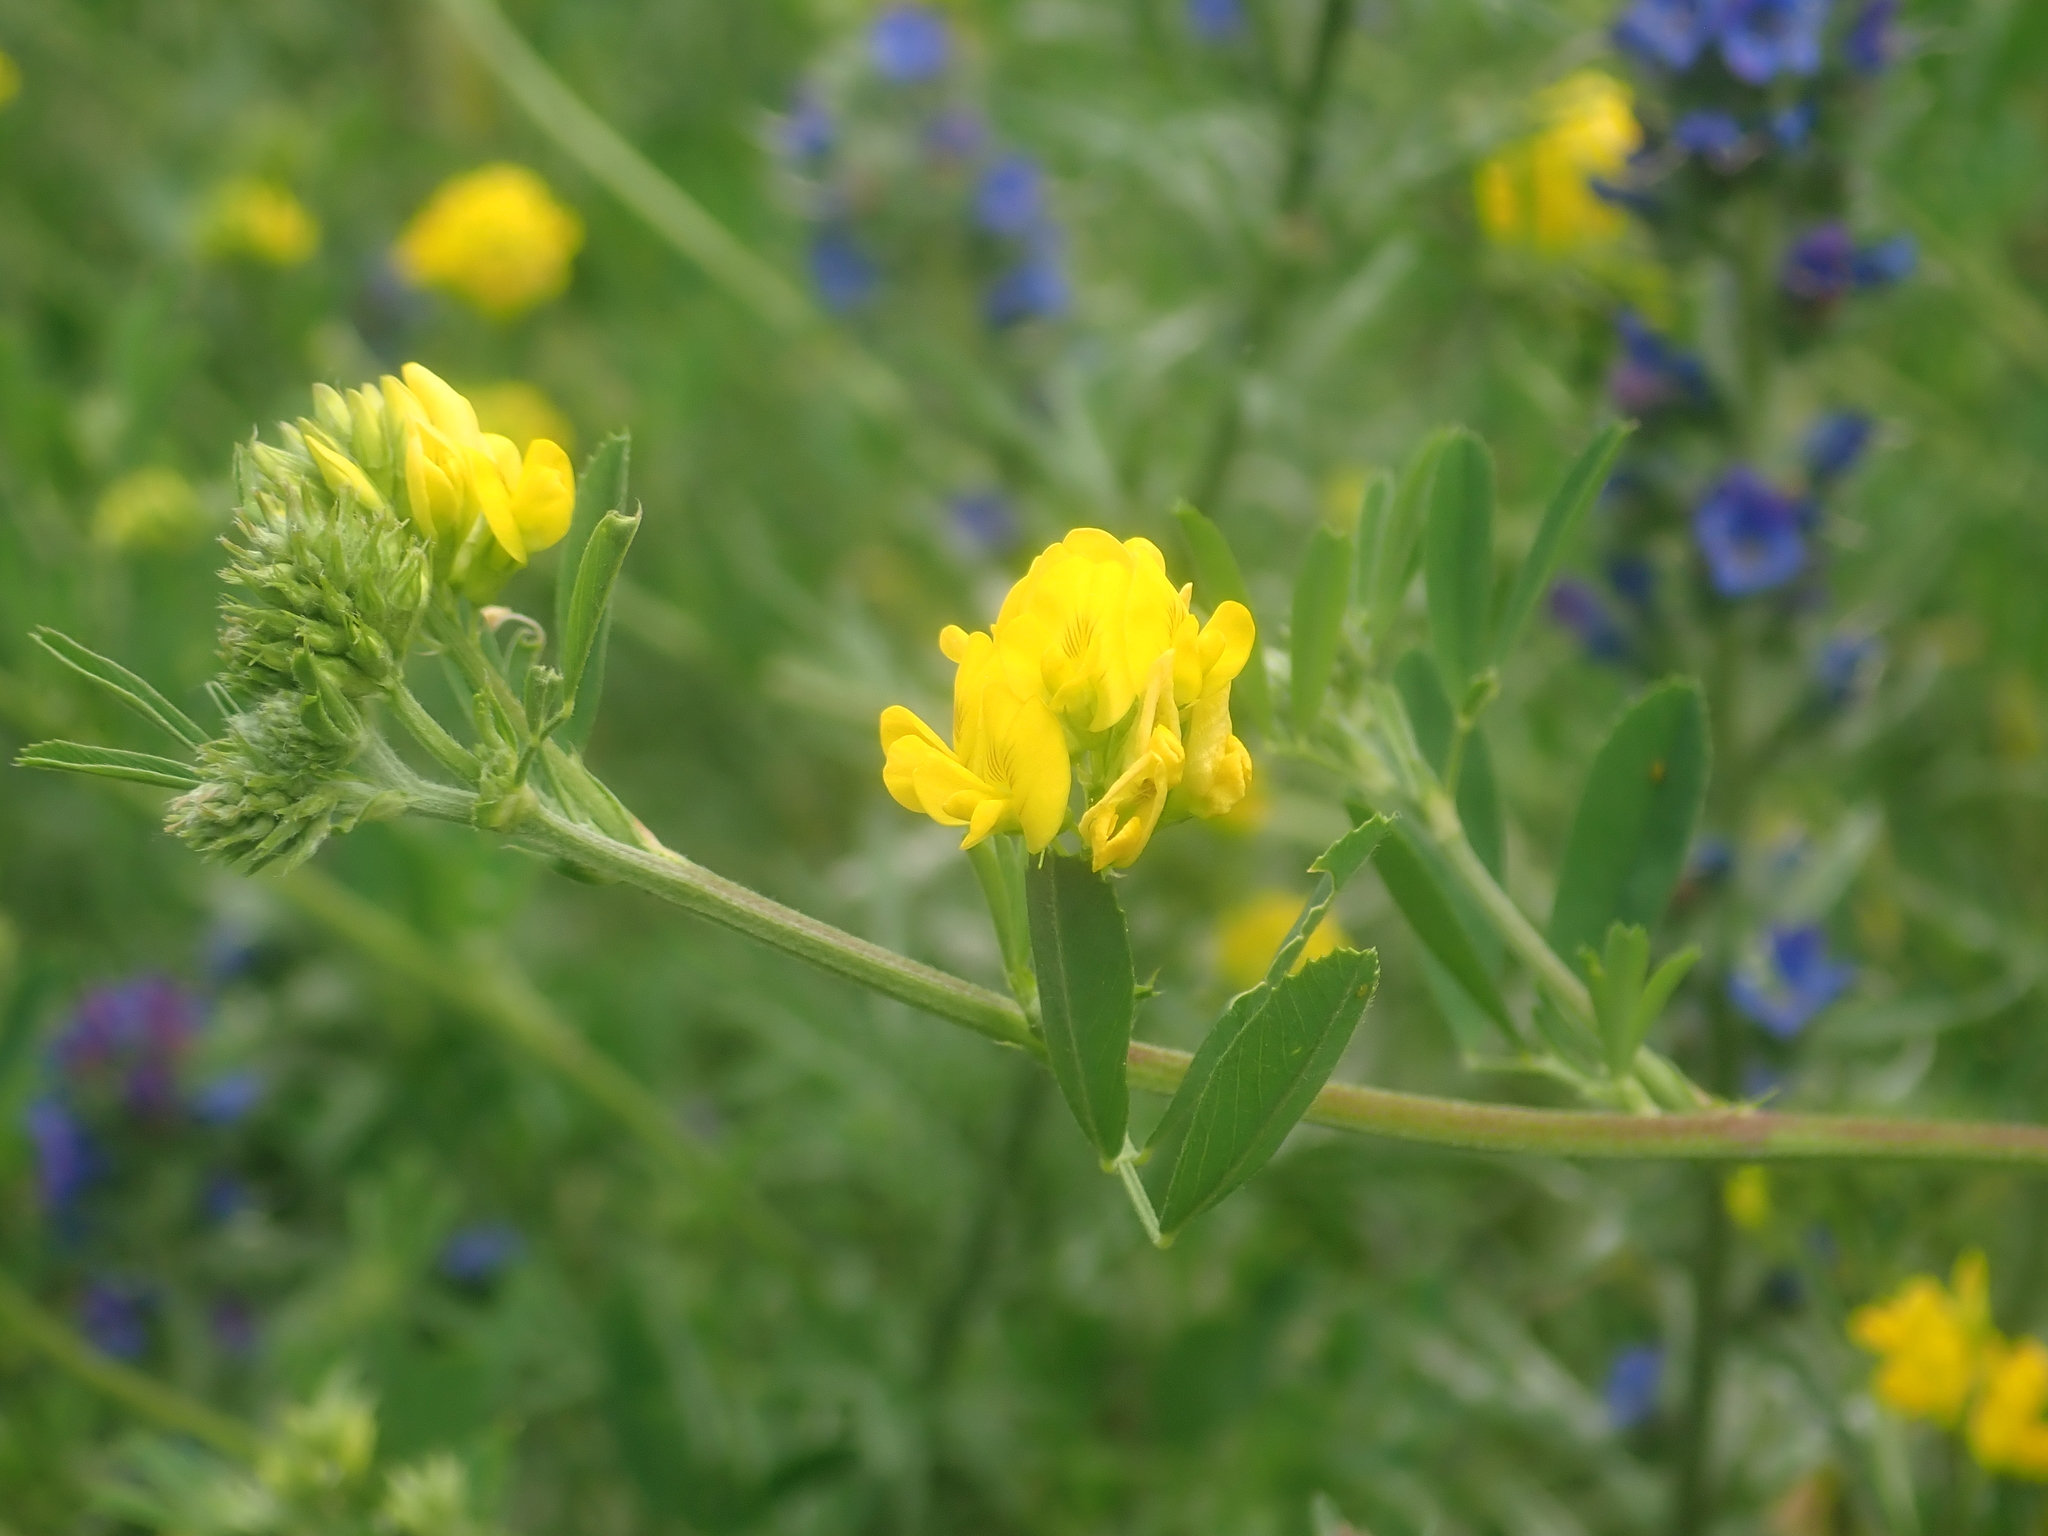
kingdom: Plantae
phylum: Tracheophyta
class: Magnoliopsida
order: Fabales
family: Fabaceae
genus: Medicago
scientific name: Medicago falcata
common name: Sickle medick
